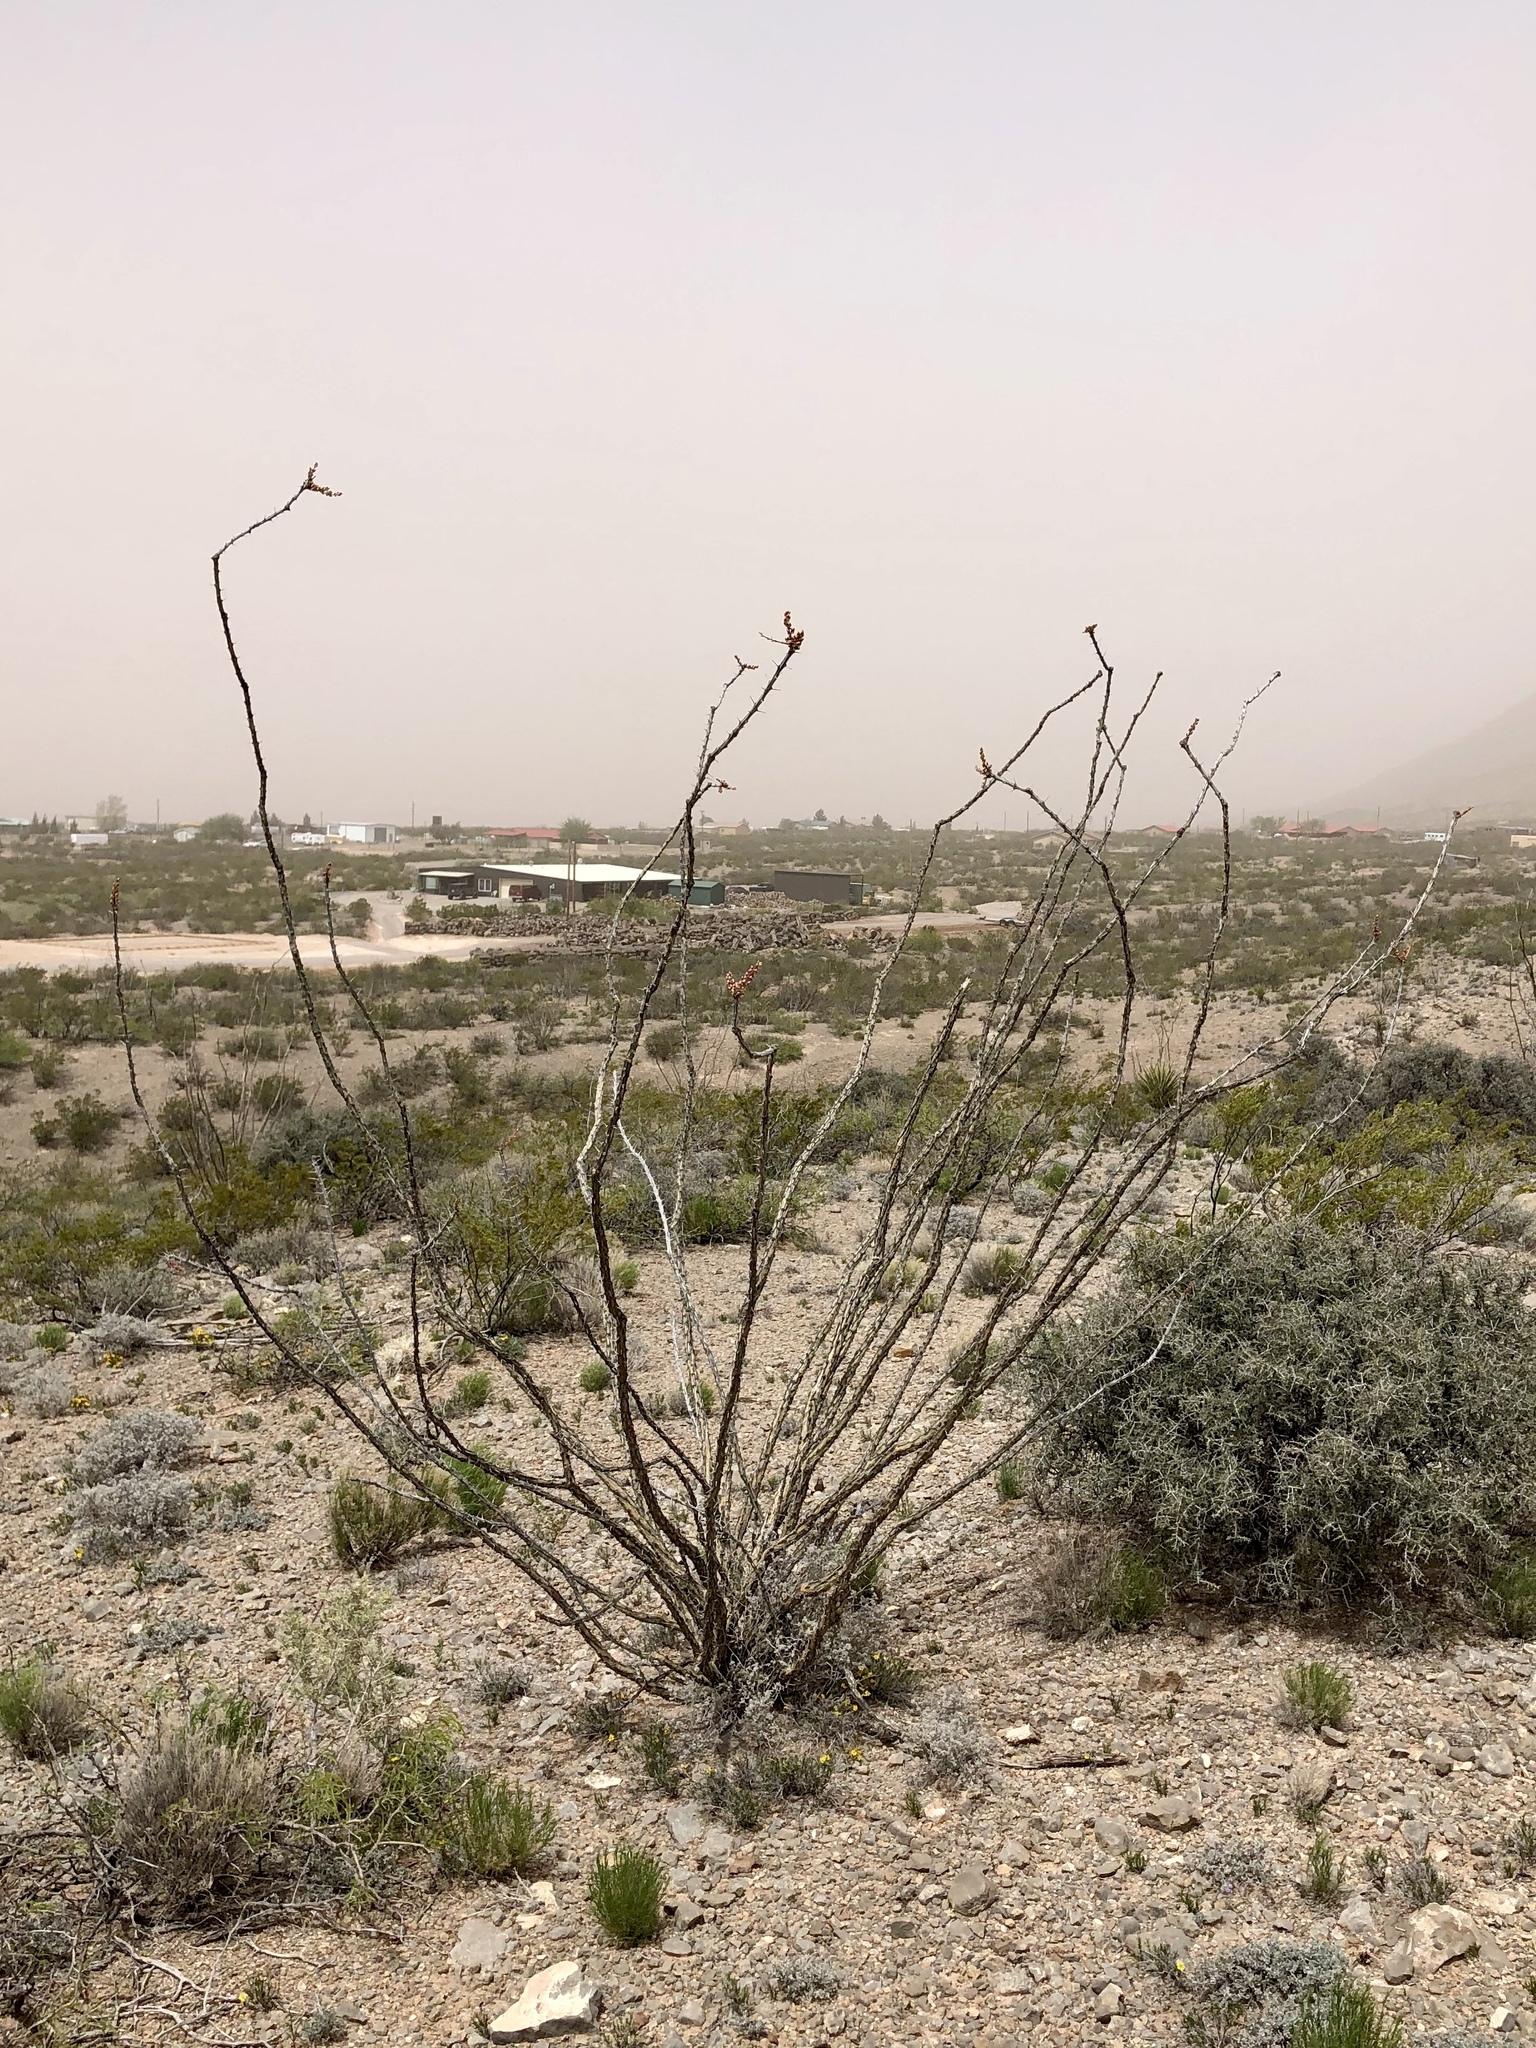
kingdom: Plantae
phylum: Tracheophyta
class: Magnoliopsida
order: Ericales
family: Fouquieriaceae
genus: Fouquieria
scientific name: Fouquieria splendens
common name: Vine-cactus
